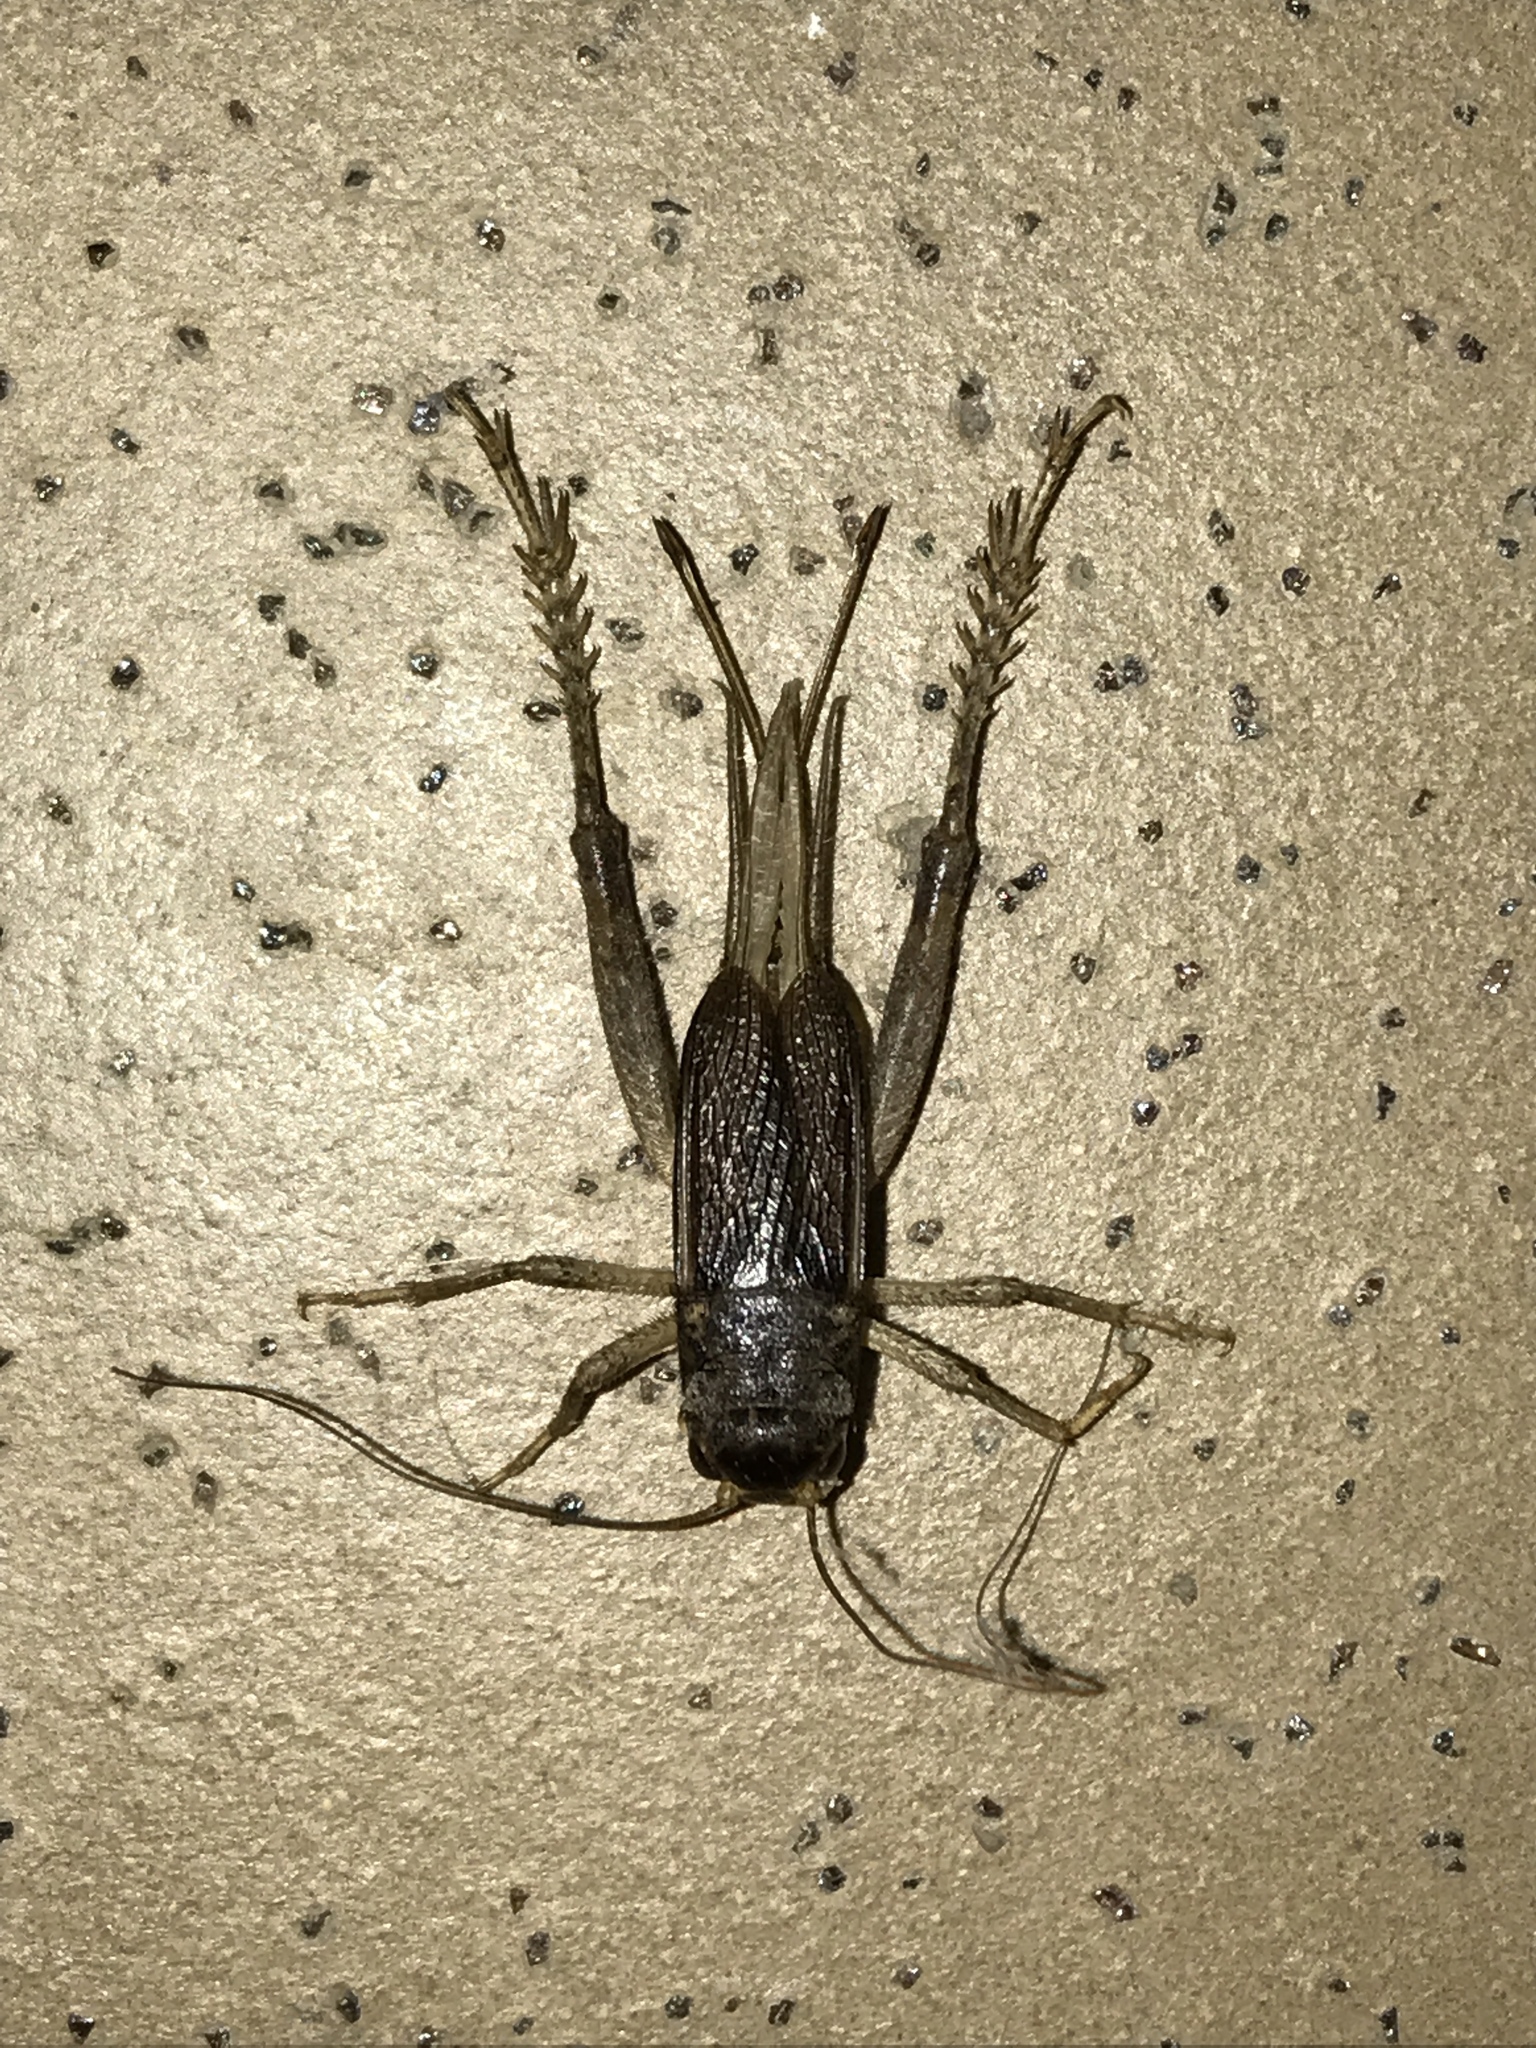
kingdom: Animalia
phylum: Arthropoda
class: Insecta
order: Orthoptera
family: Gryllidae
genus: Velarifictorus
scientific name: Velarifictorus micado
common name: Japanese burrowing cricket
